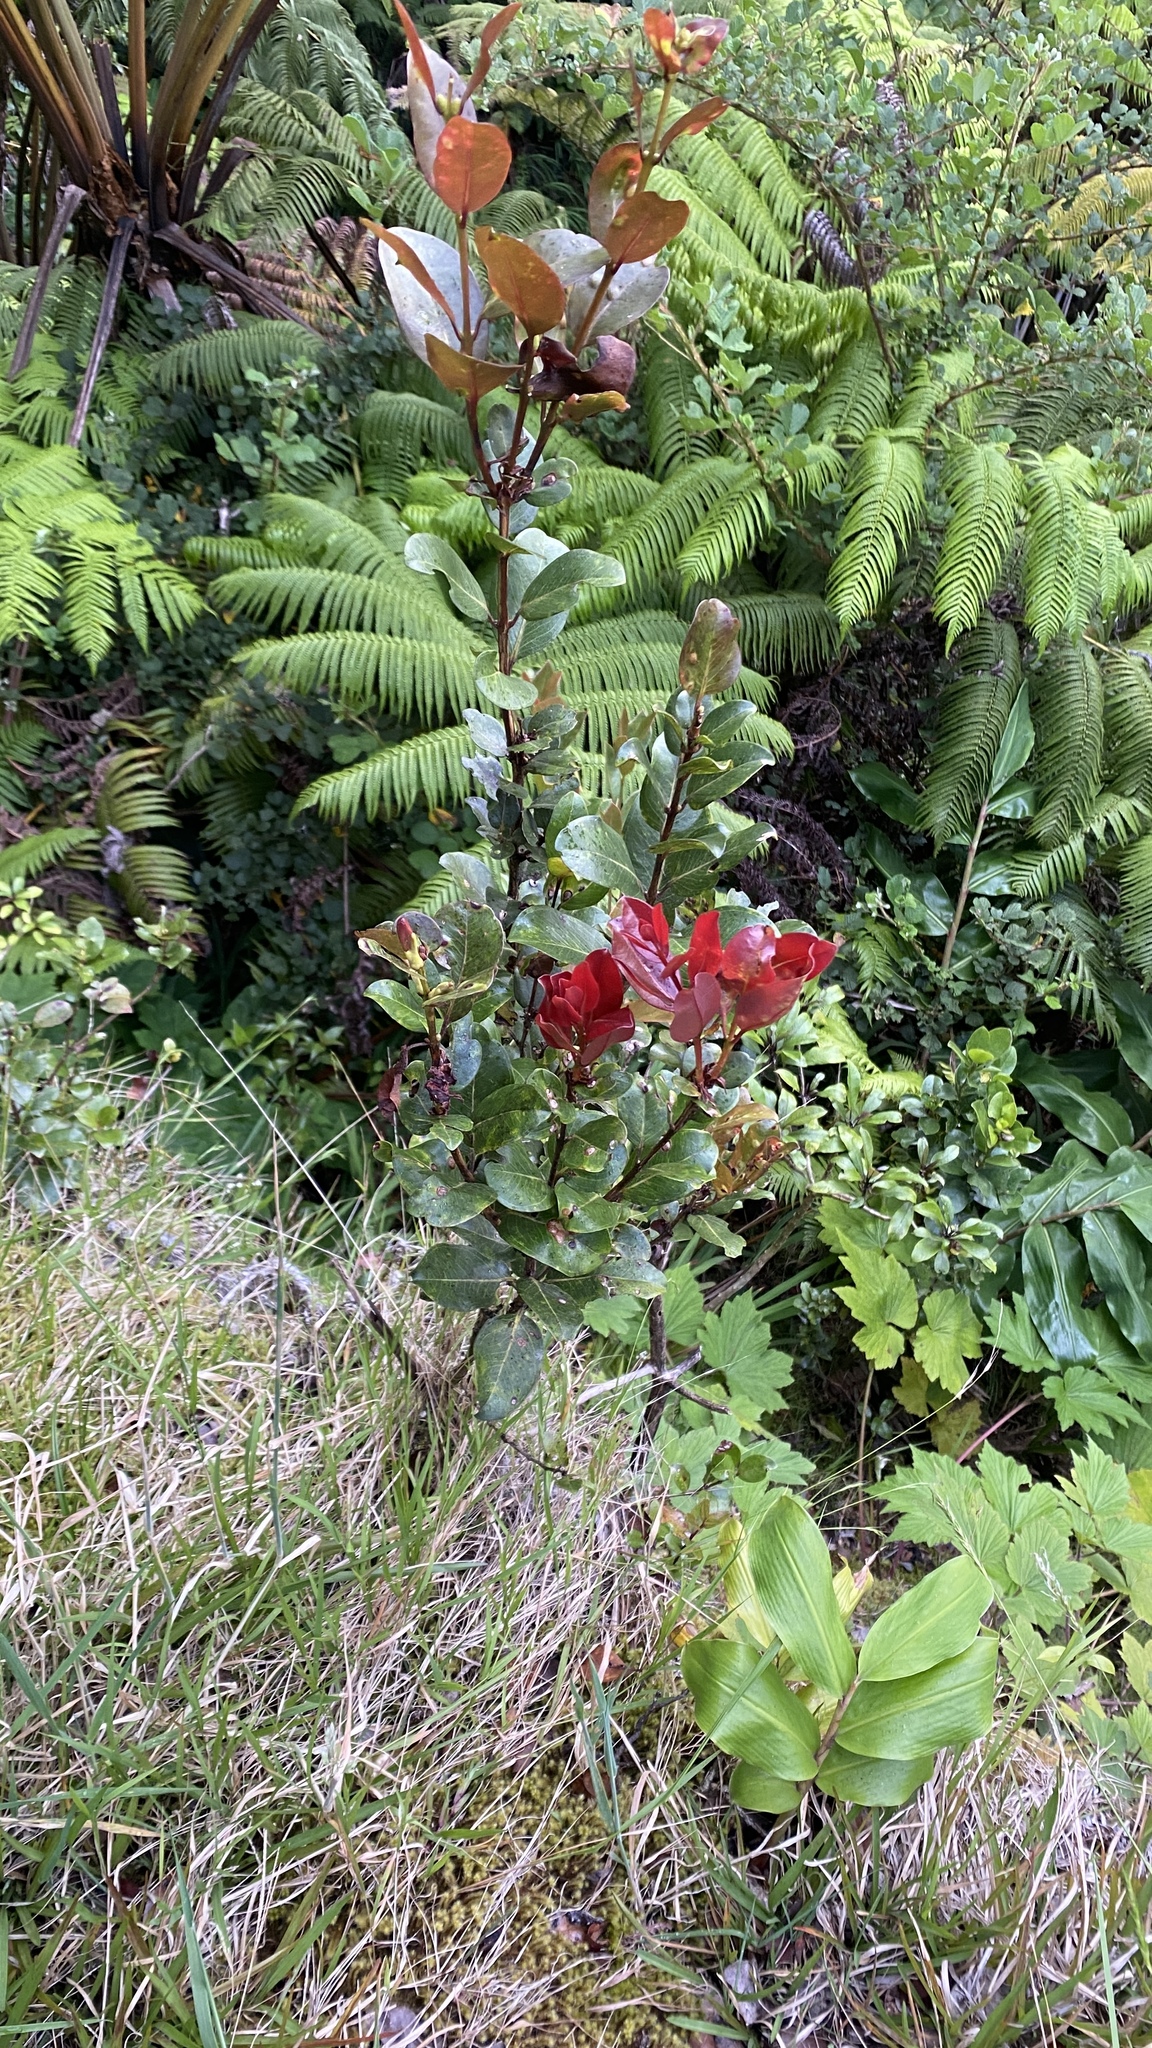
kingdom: Plantae
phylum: Tracheophyta
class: Magnoliopsida
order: Myrtales
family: Myrtaceae
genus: Metrosideros
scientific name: Metrosideros polymorpha
